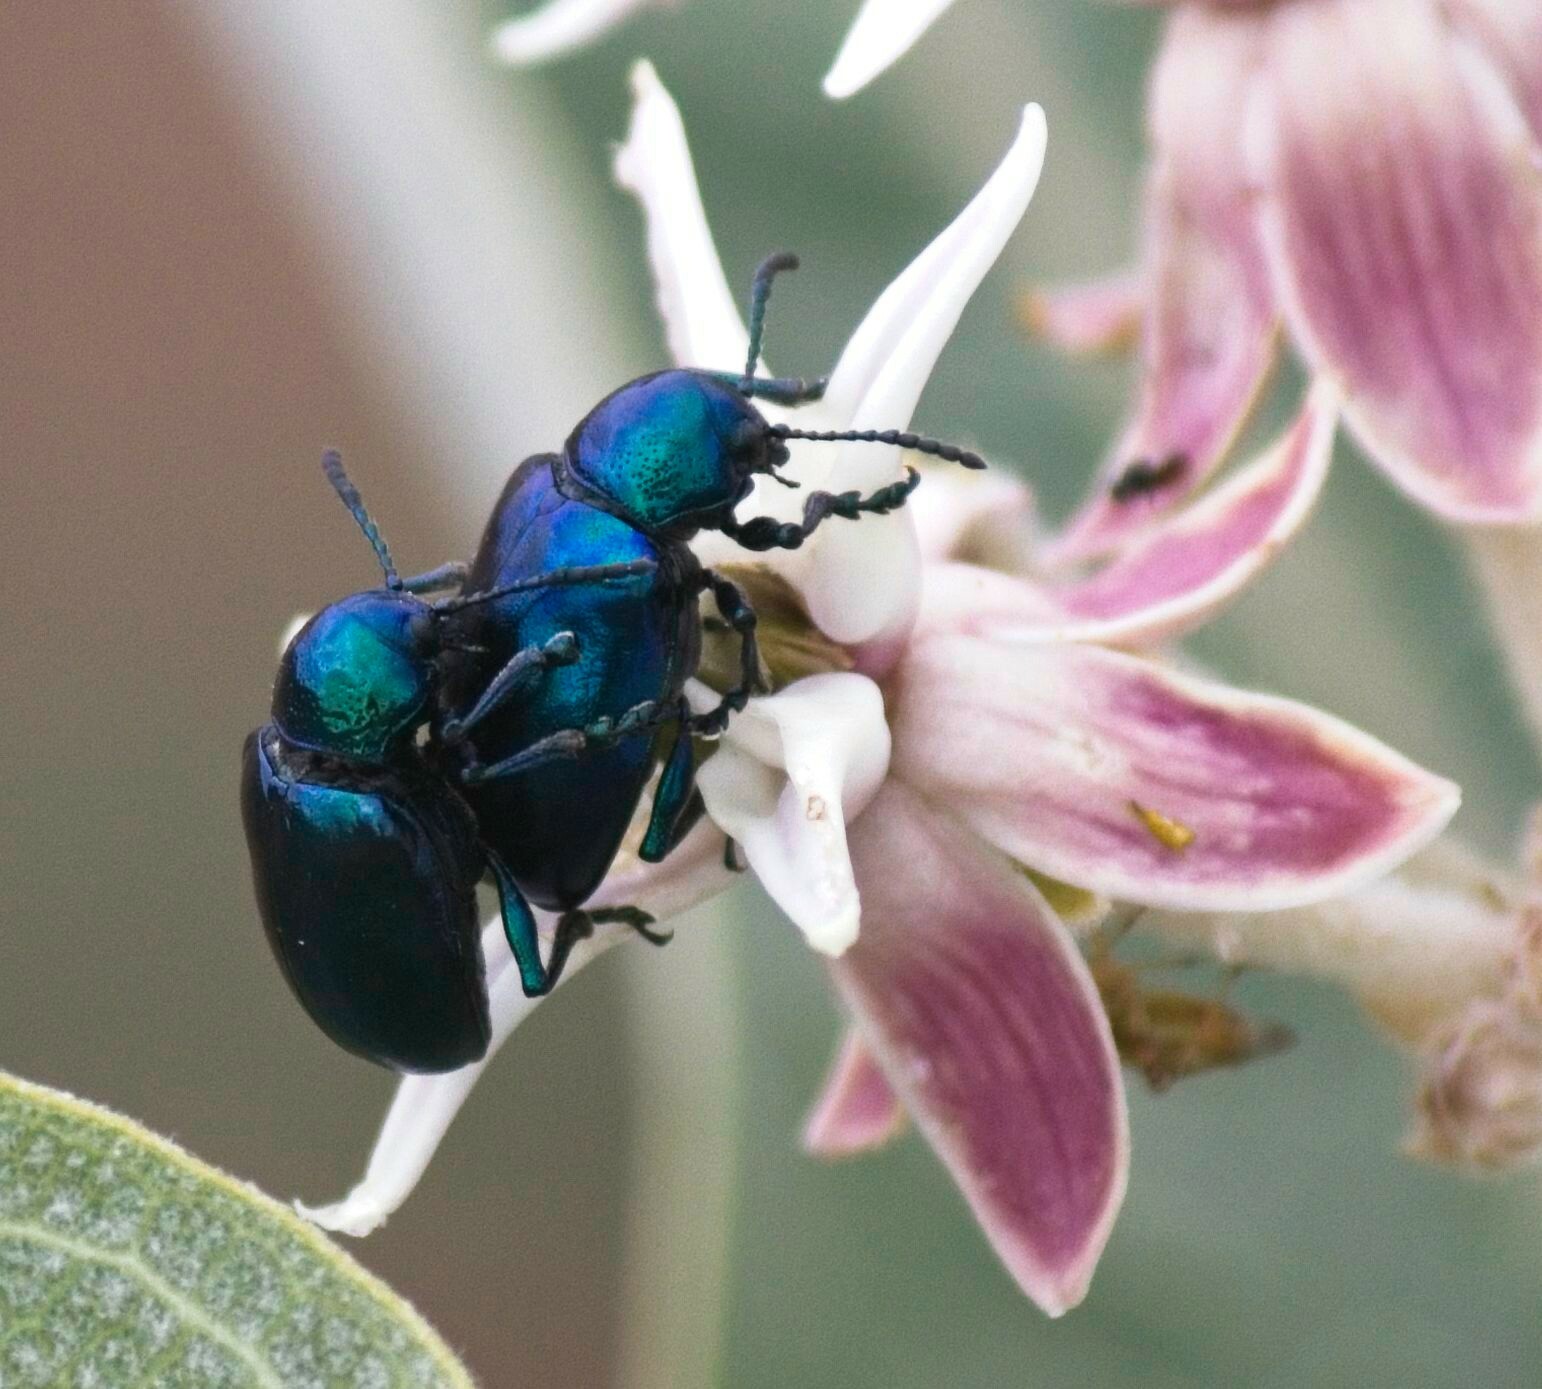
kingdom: Animalia
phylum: Arthropoda
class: Insecta
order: Coleoptera
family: Chrysomelidae
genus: Chrysochus
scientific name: Chrysochus cobaltinus
